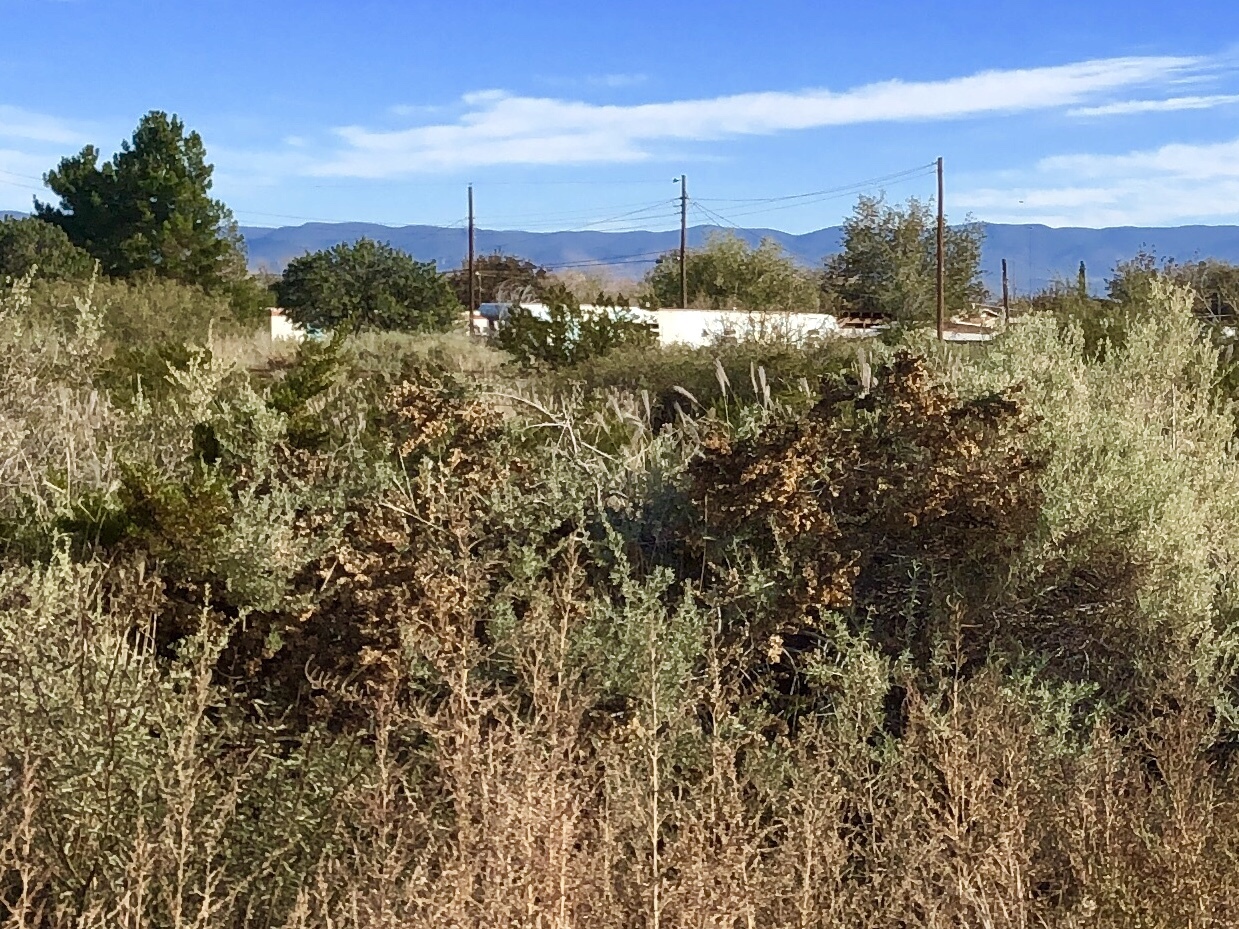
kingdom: Plantae
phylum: Tracheophyta
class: Magnoliopsida
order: Caryophyllales
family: Amaranthaceae
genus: Atriplex
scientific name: Atriplex canescens
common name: Four-wing saltbush
